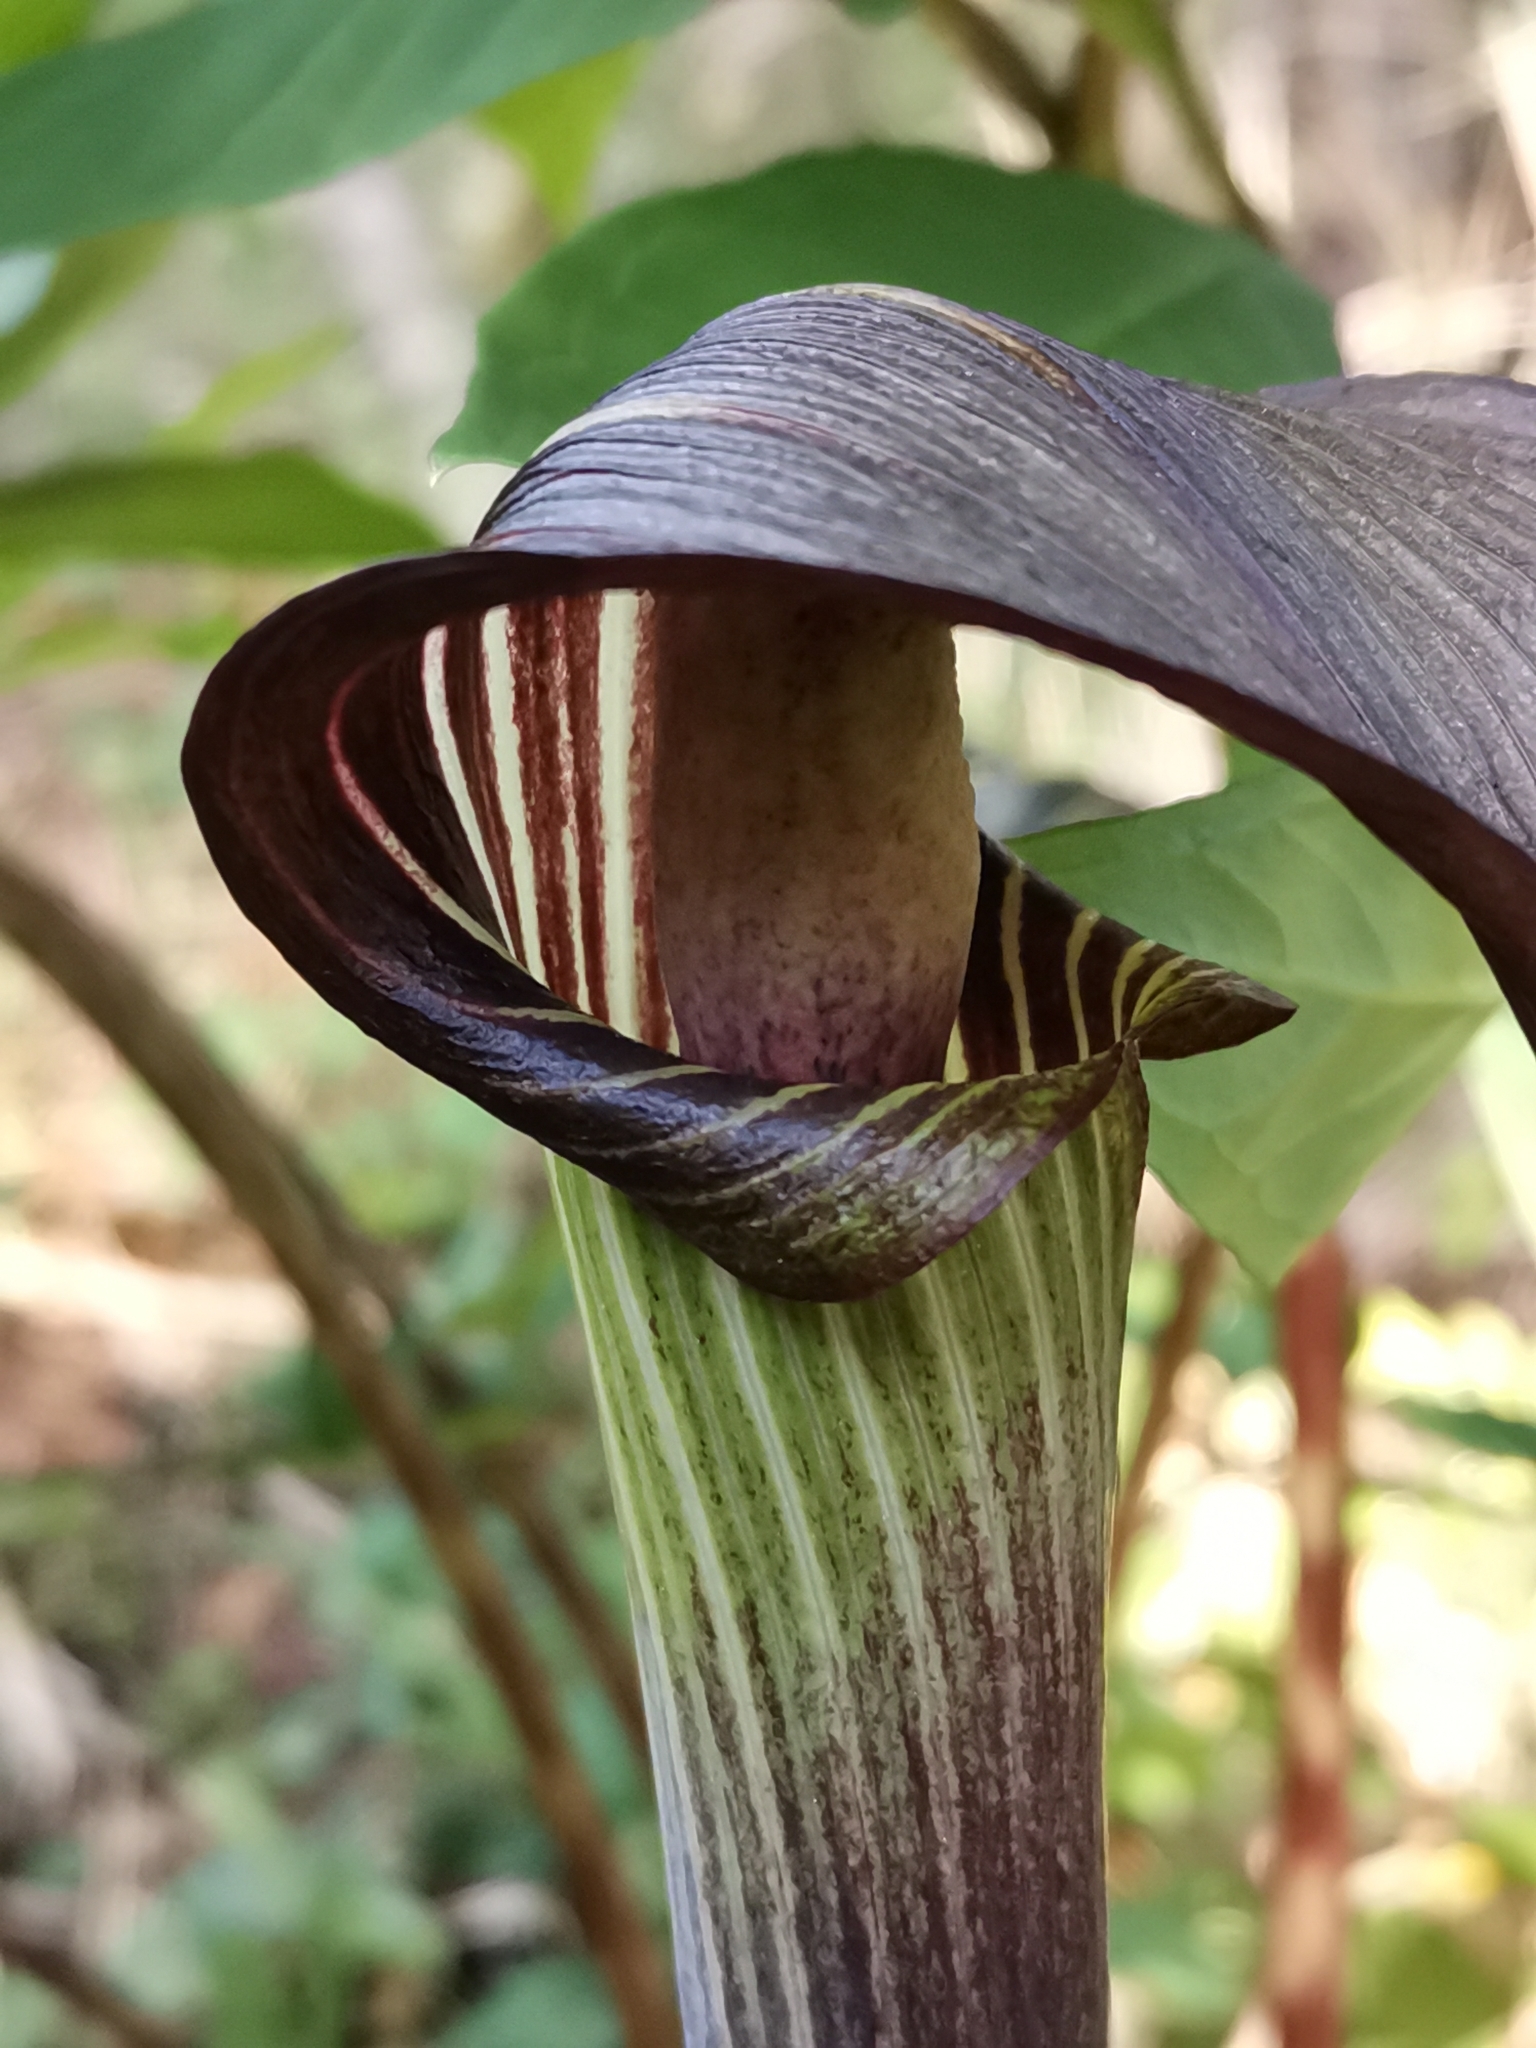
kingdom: Plantae
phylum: Tracheophyta
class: Liliopsida
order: Alismatales
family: Araceae
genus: Arisaema
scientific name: Arisaema serratum
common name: Japanese arisaema
